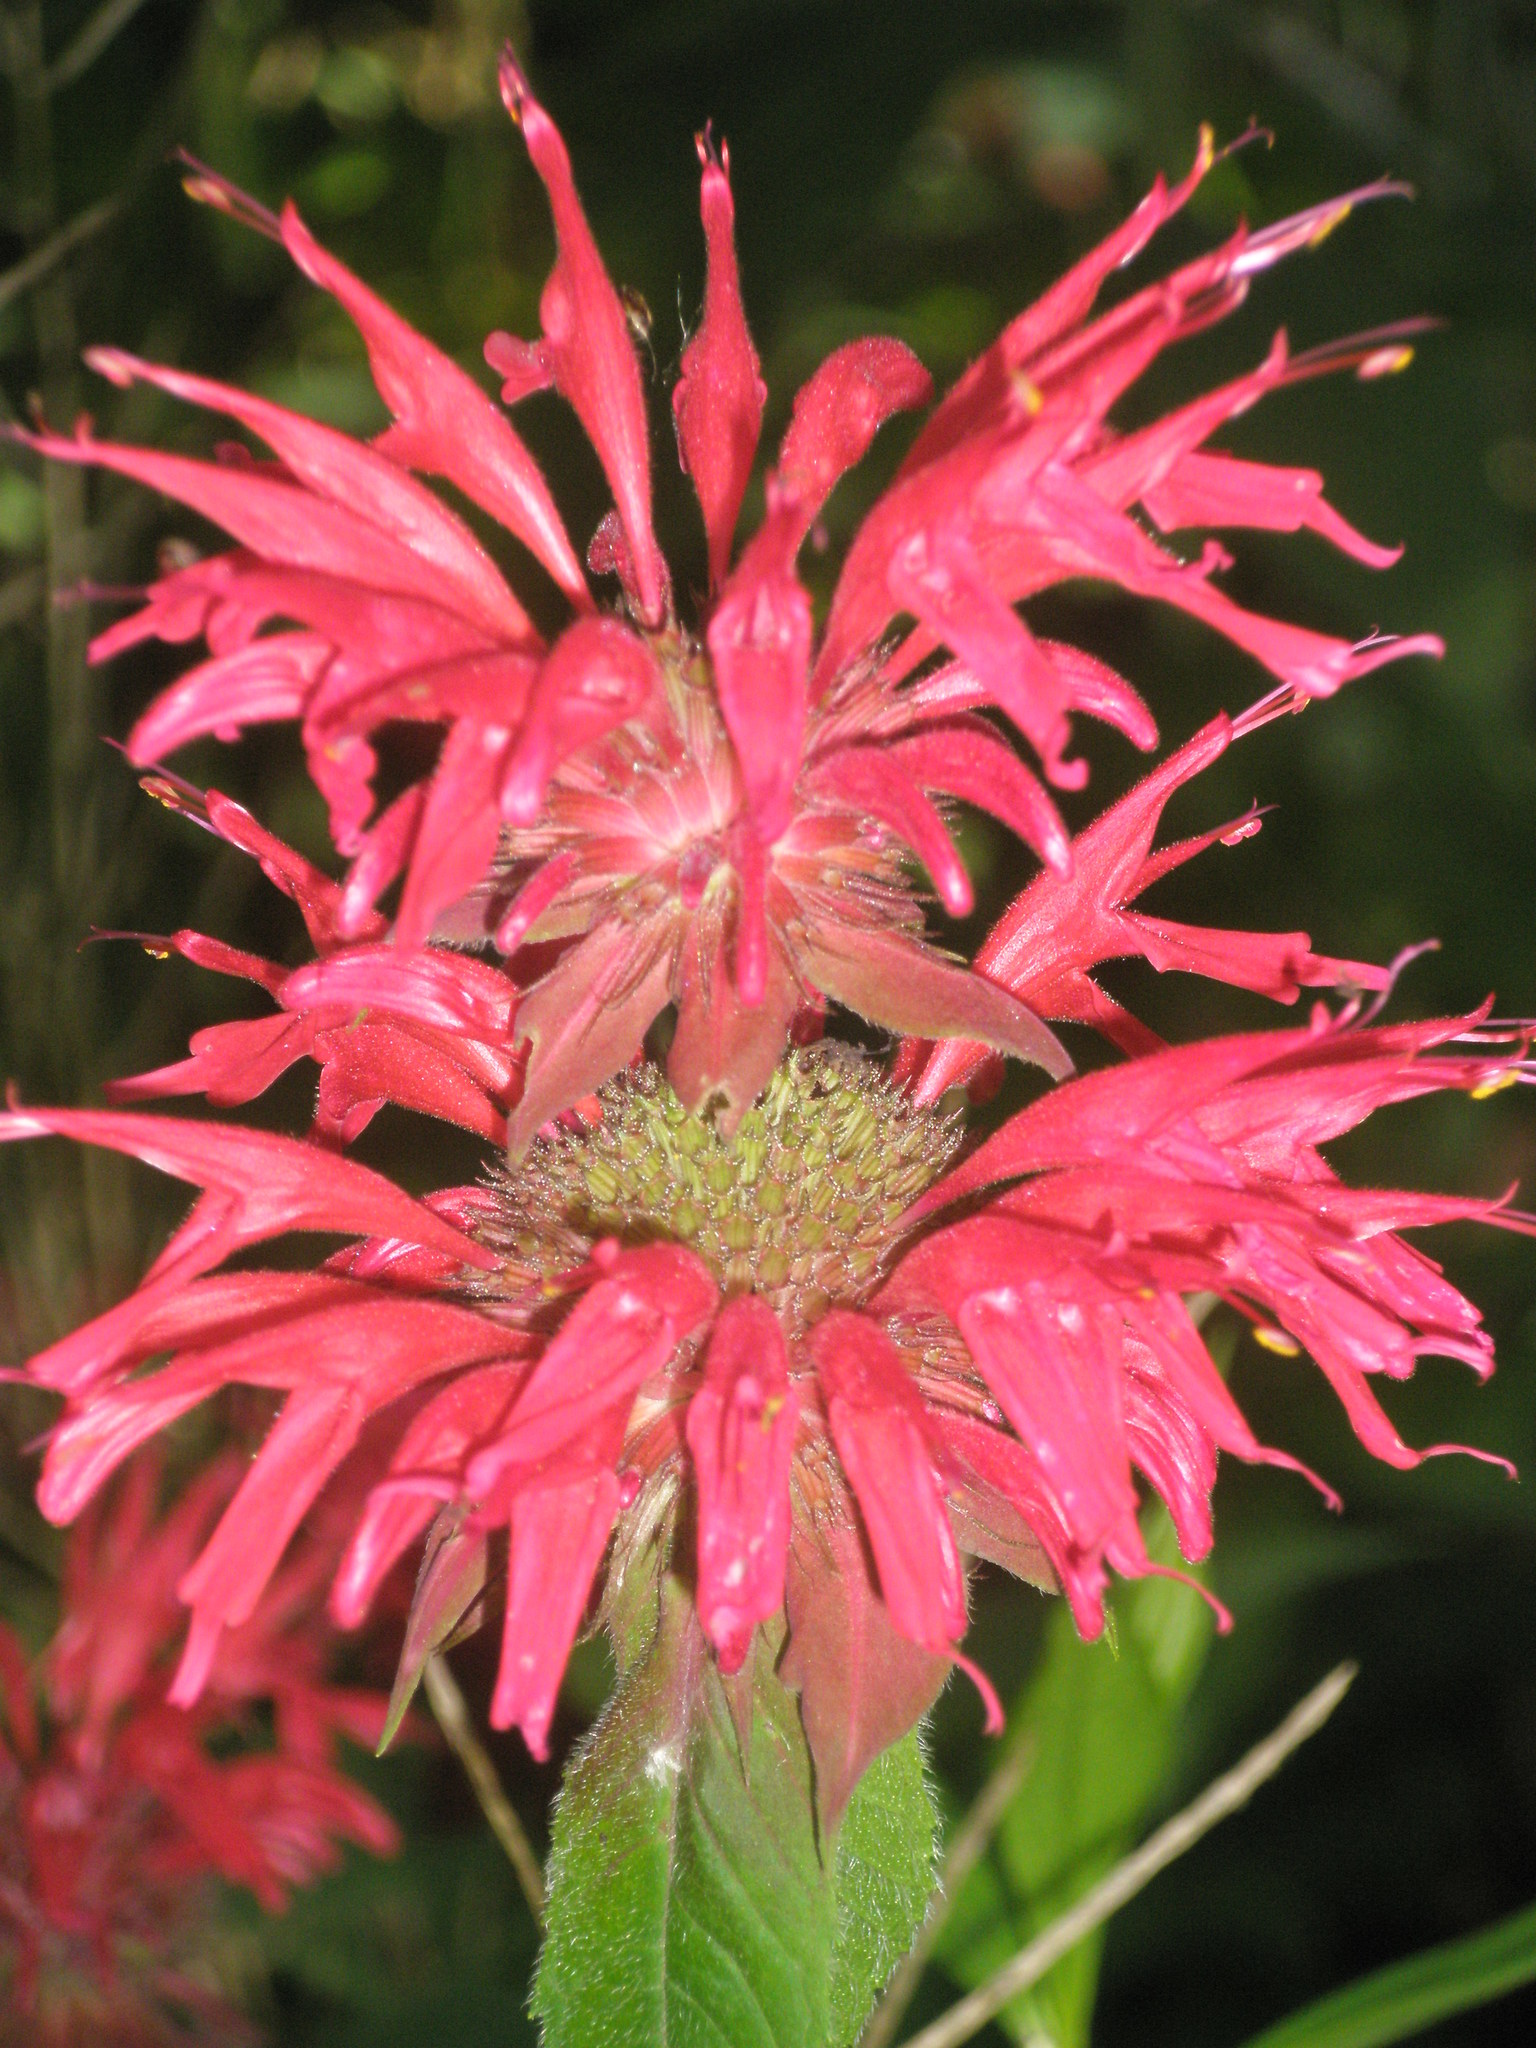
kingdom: Plantae
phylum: Tracheophyta
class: Magnoliopsida
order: Lamiales
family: Lamiaceae
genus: Monarda
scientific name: Monarda didyma
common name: Beebalm
